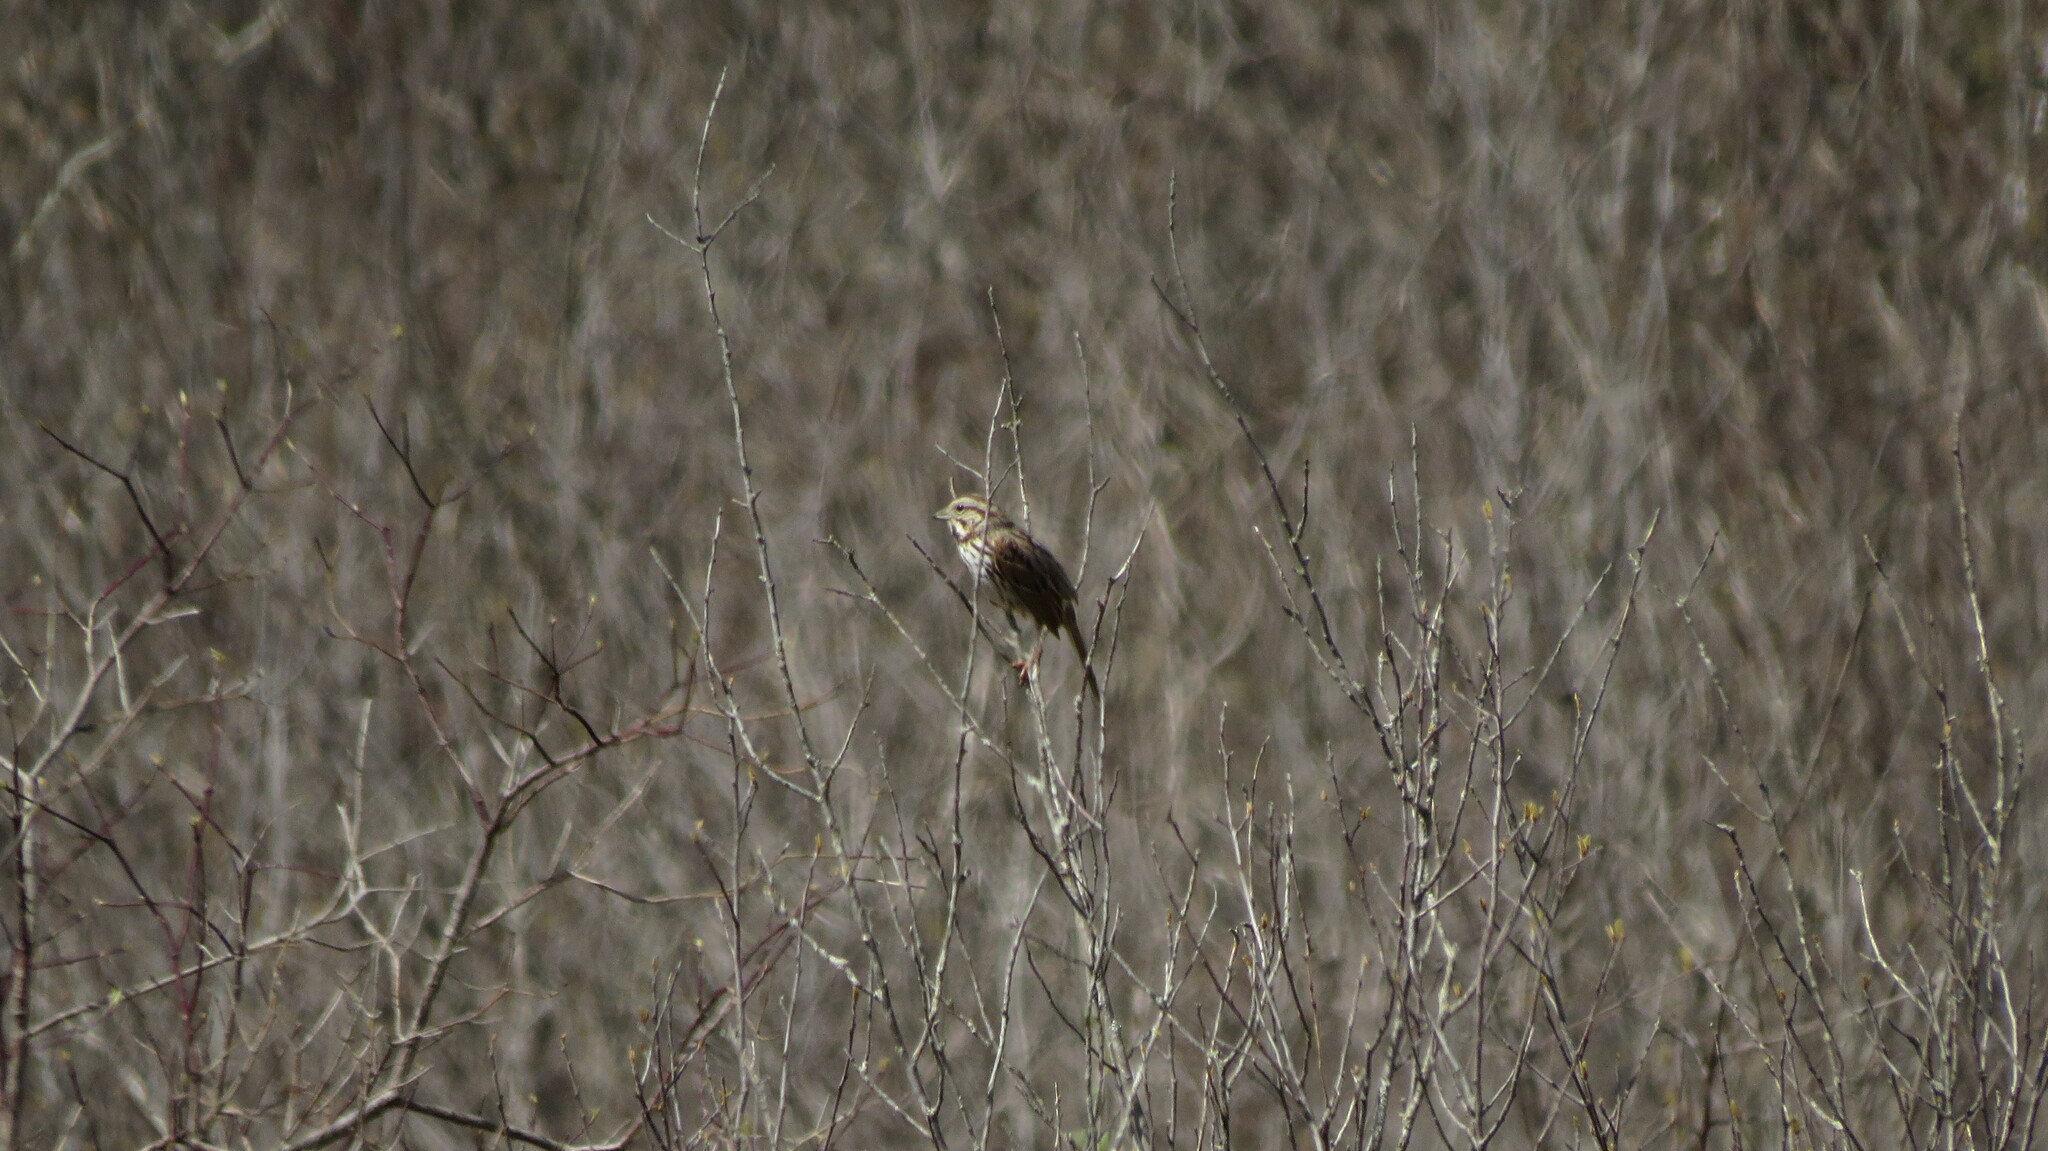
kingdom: Animalia
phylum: Chordata
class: Aves
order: Passeriformes
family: Passerellidae
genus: Melospiza
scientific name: Melospiza melodia
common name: Song sparrow
